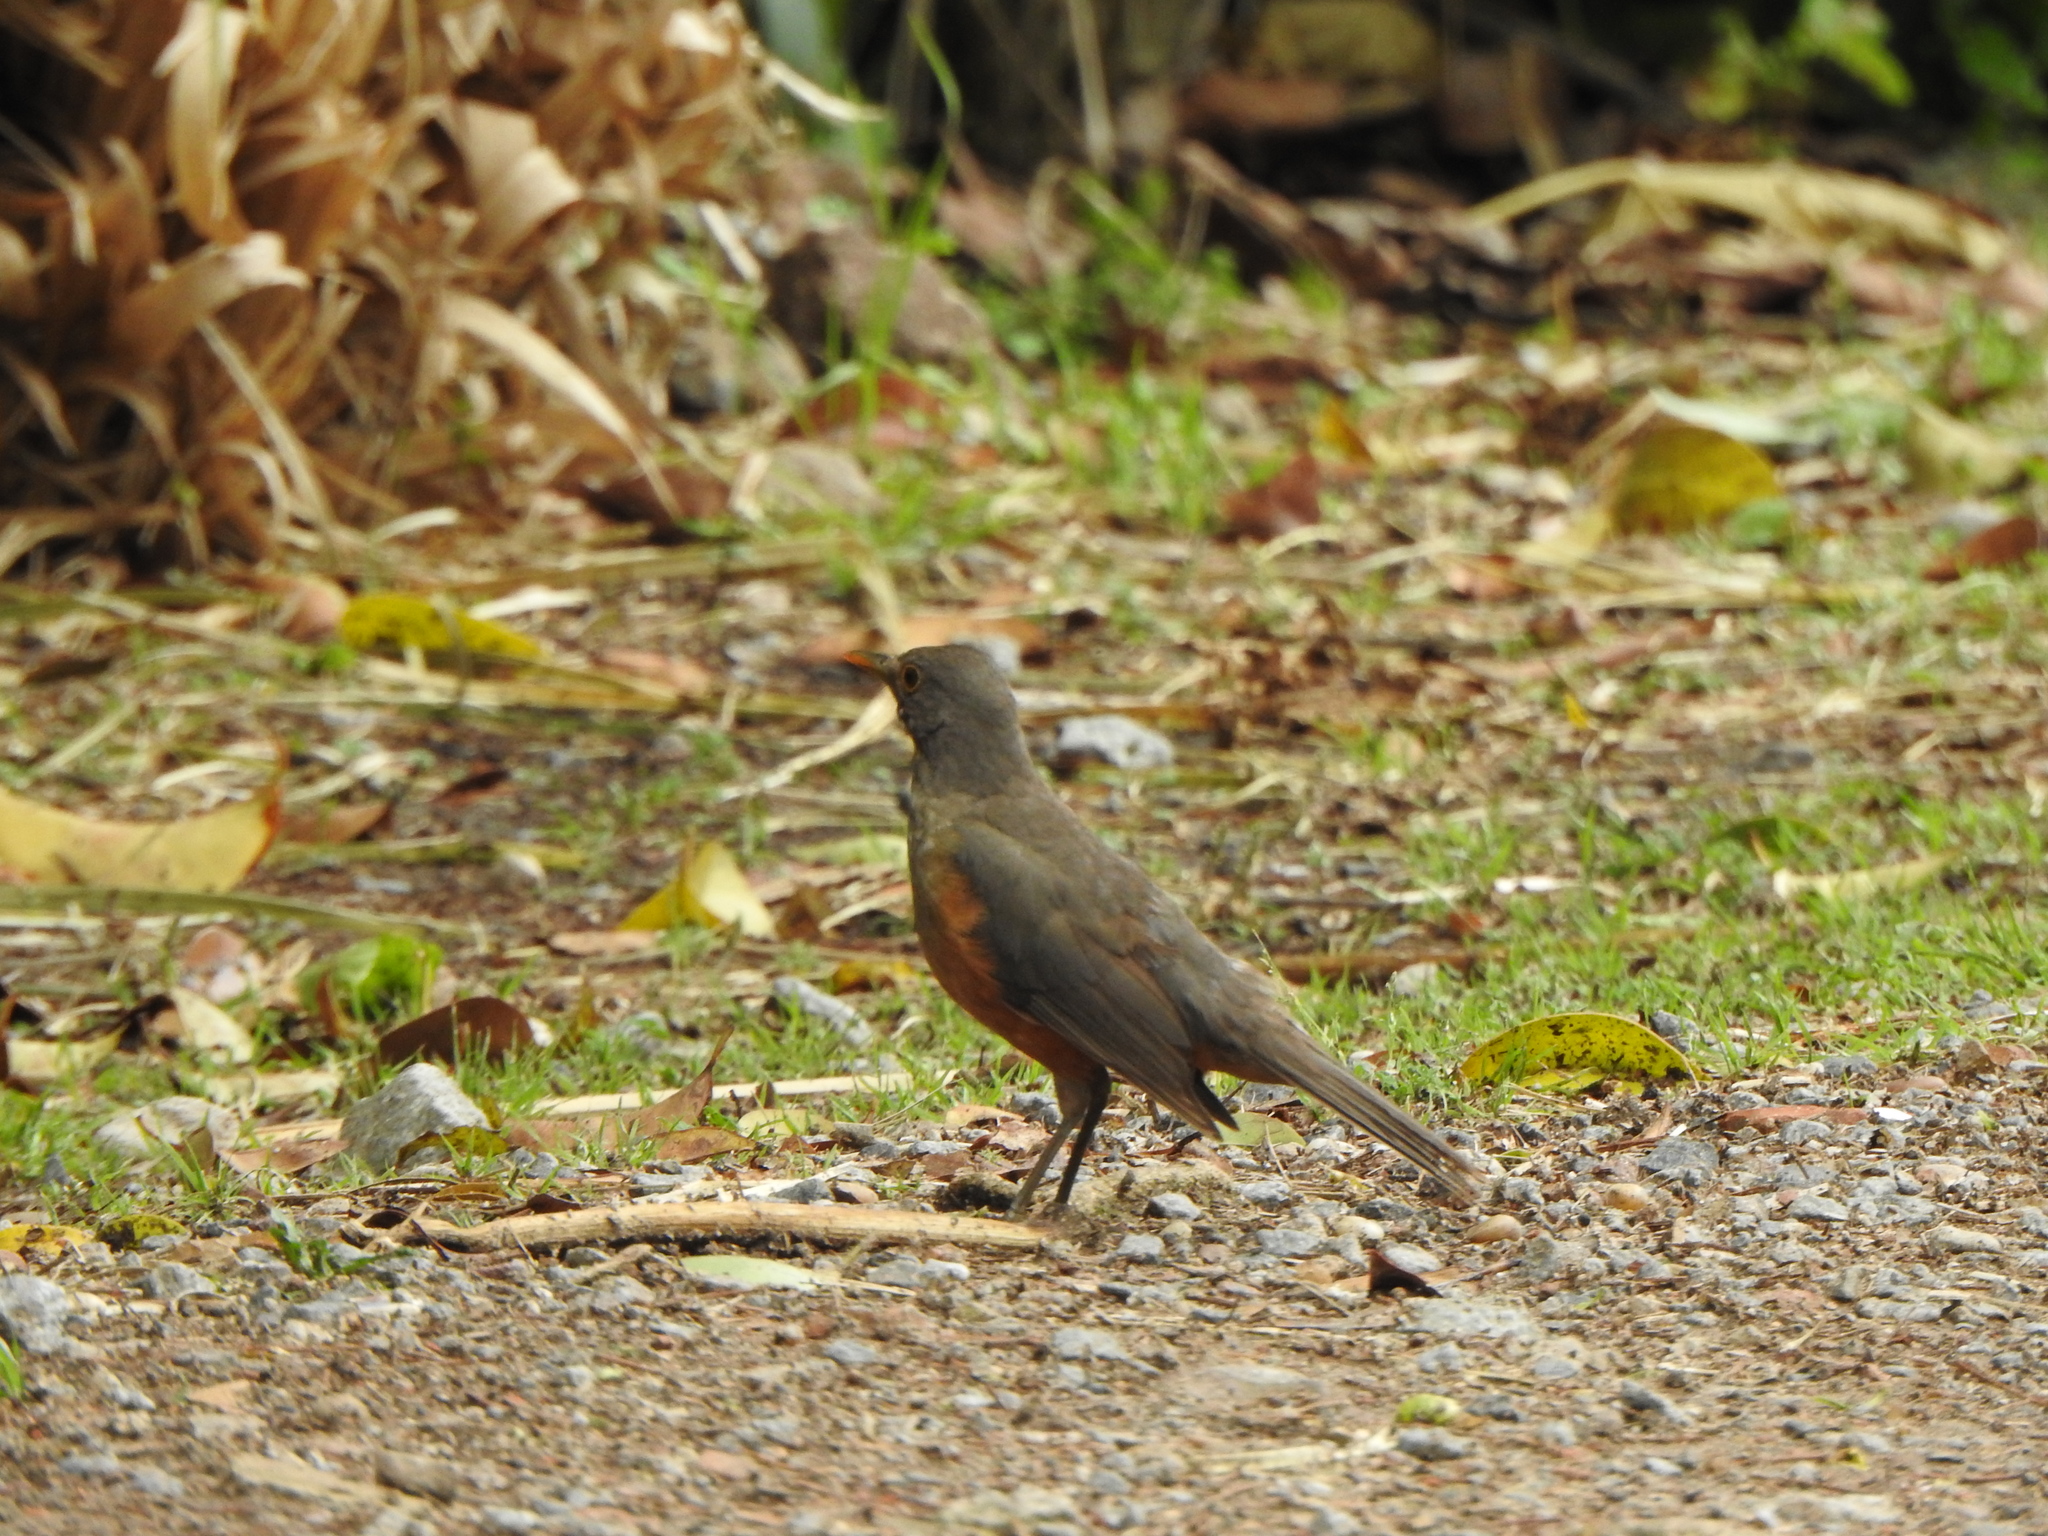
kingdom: Animalia
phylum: Chordata
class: Aves
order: Passeriformes
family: Turdidae
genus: Turdus
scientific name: Turdus rufiventris
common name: Rufous-bellied thrush
